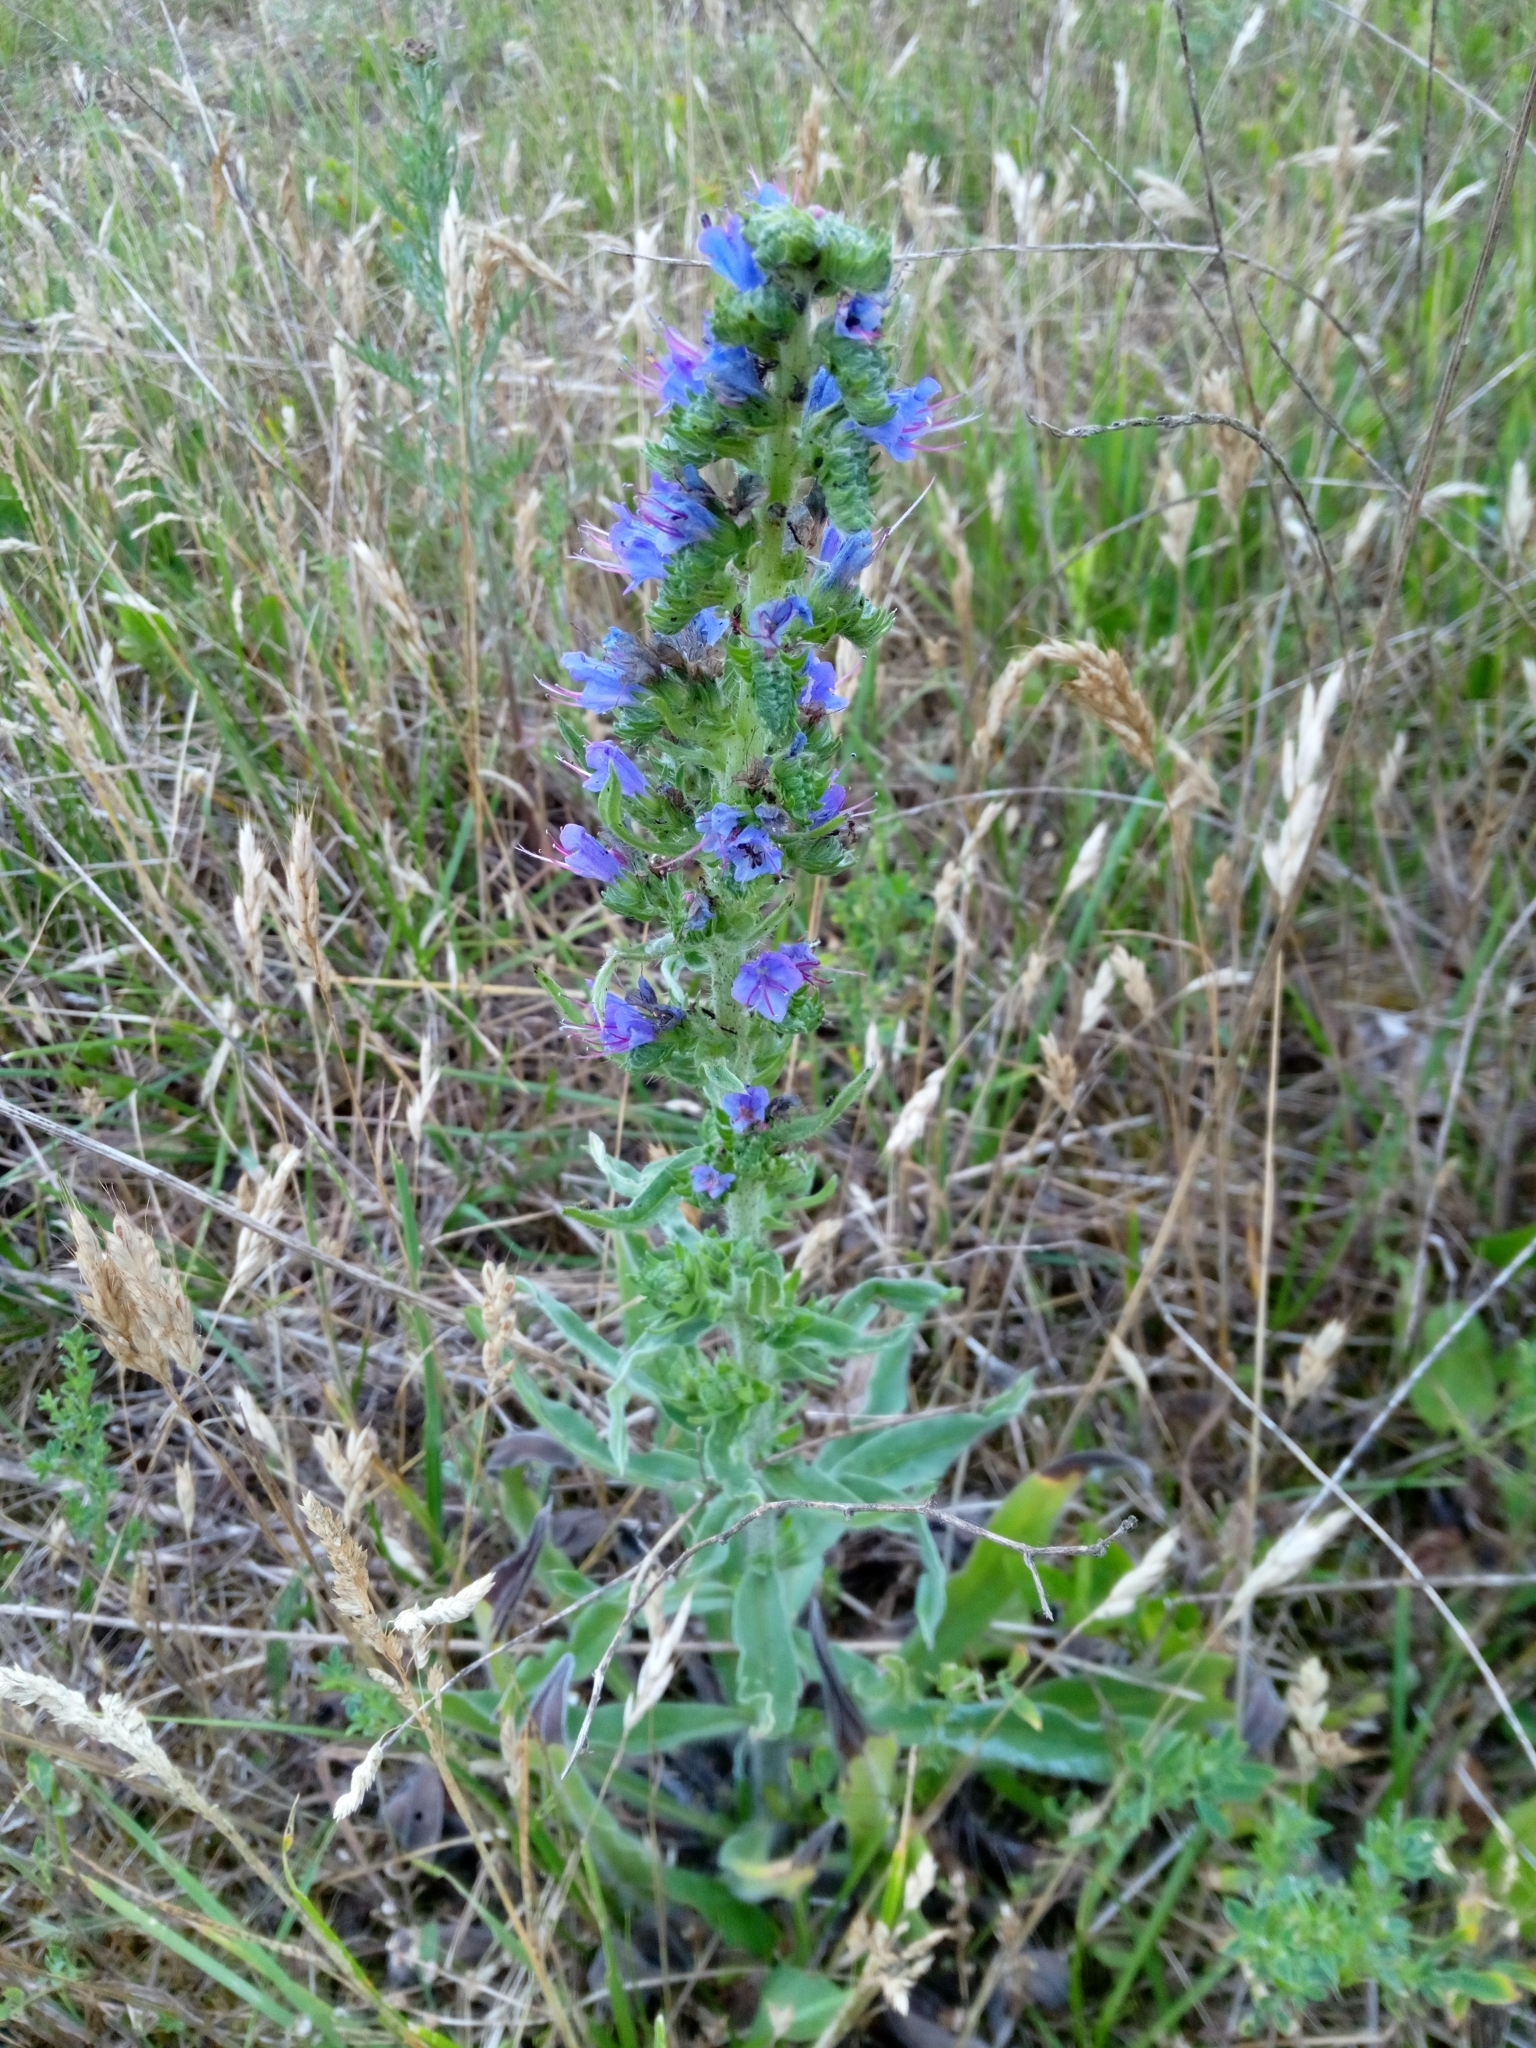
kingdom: Plantae
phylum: Tracheophyta
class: Magnoliopsida
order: Boraginales
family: Boraginaceae
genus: Echium
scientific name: Echium vulgare
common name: Common viper's bugloss
